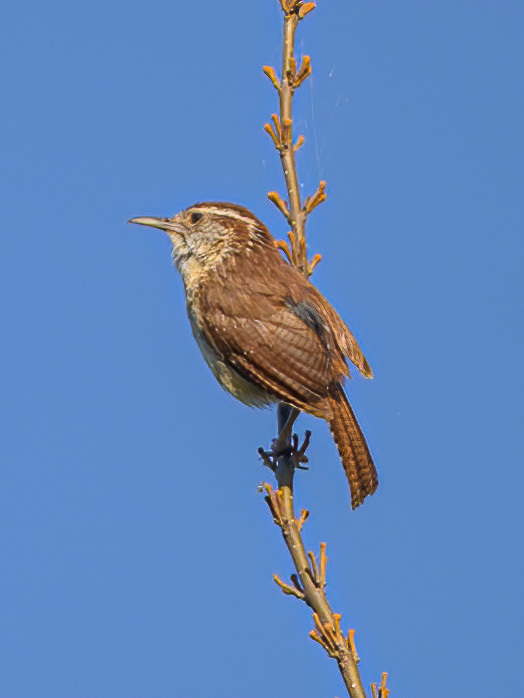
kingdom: Animalia
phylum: Chordata
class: Aves
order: Passeriformes
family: Troglodytidae
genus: Thryothorus
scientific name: Thryothorus ludovicianus
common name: Carolina wren
